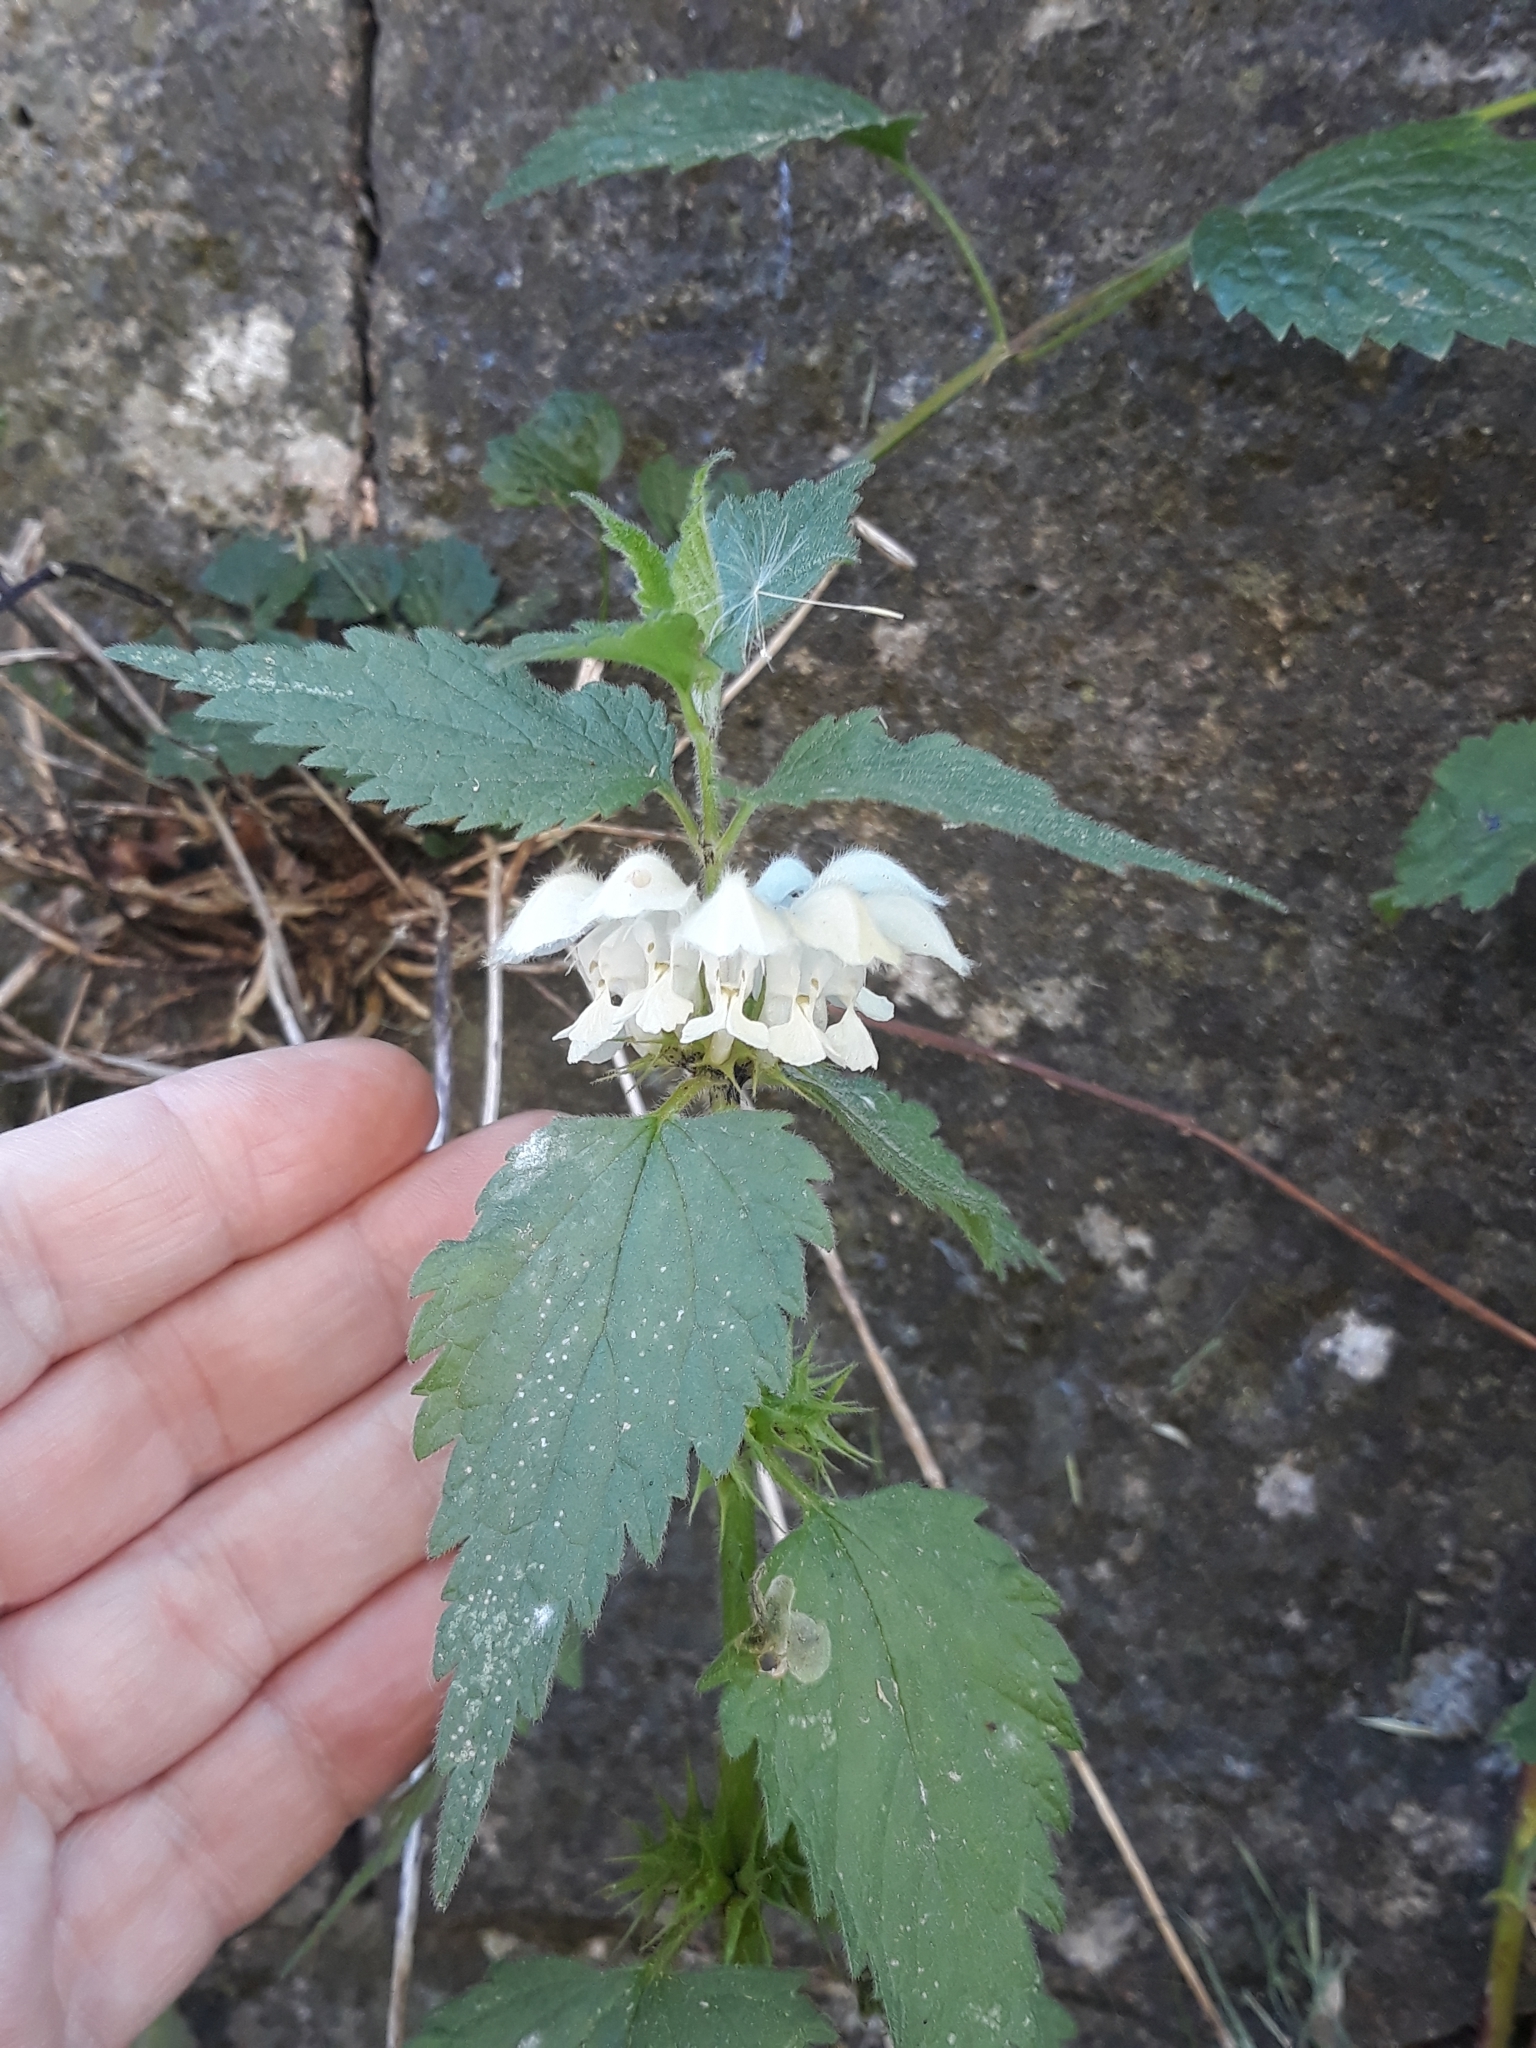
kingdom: Plantae
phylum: Tracheophyta
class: Magnoliopsida
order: Lamiales
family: Lamiaceae
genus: Lamium
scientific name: Lamium album
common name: White dead-nettle
